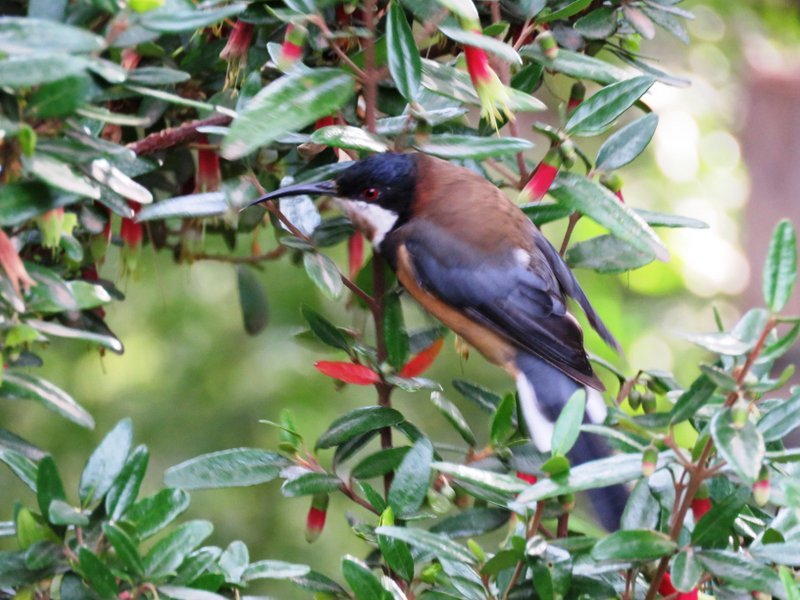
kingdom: Animalia
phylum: Chordata
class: Aves
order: Passeriformes
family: Meliphagidae
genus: Acanthorhynchus
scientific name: Acanthorhynchus tenuirostris
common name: Eastern spinebill
